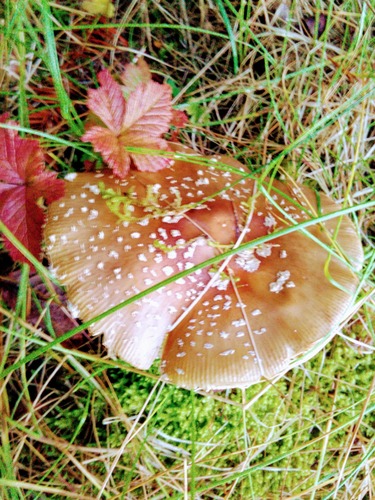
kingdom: Fungi
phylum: Basidiomycota
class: Agaricomycetes
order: Agaricales
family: Amanitaceae
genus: Amanita
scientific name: Amanita regalis
